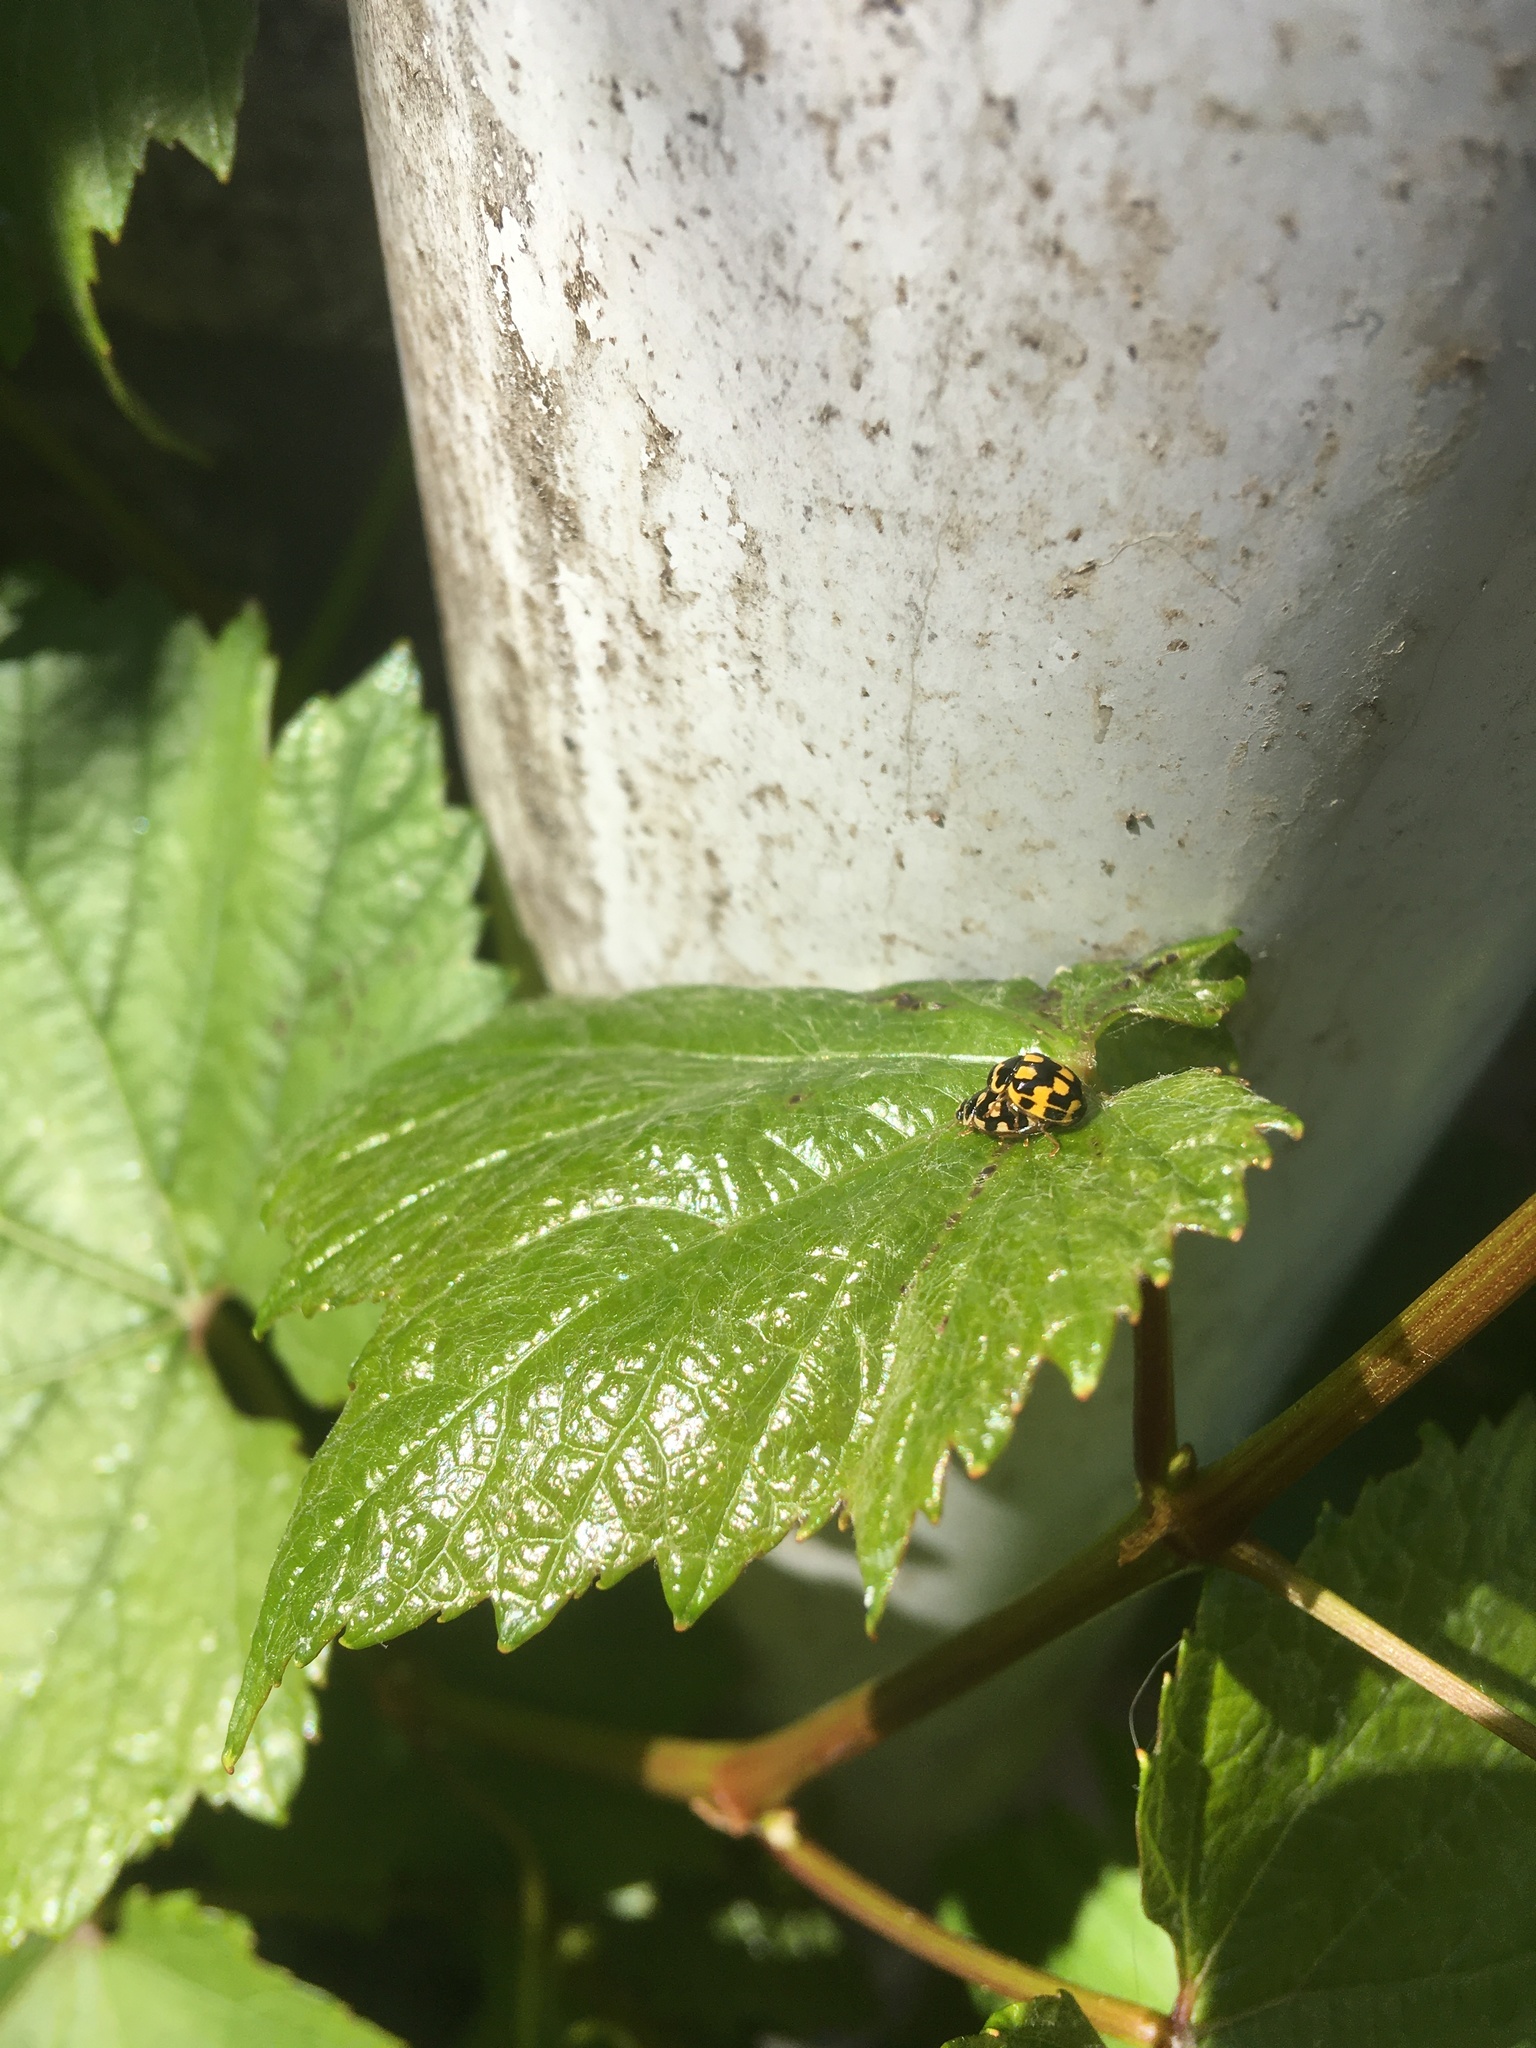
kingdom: Animalia
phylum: Arthropoda
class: Insecta
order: Coleoptera
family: Coccinellidae
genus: Propylaea
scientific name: Propylaea quatuordecimpunctata
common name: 14-spotted ladybird beetle
